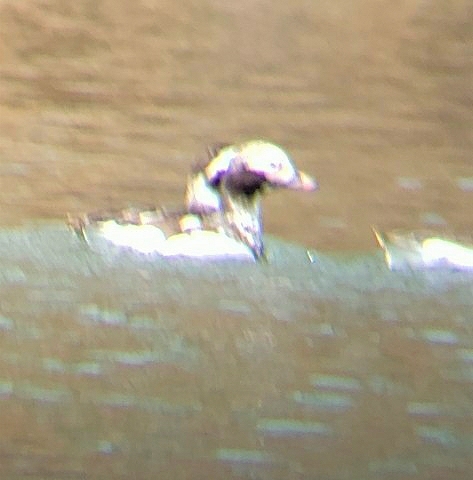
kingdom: Animalia
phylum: Chordata
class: Aves
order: Anseriformes
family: Anatidae
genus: Clangula
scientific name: Clangula hyemalis
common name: Long-tailed duck
